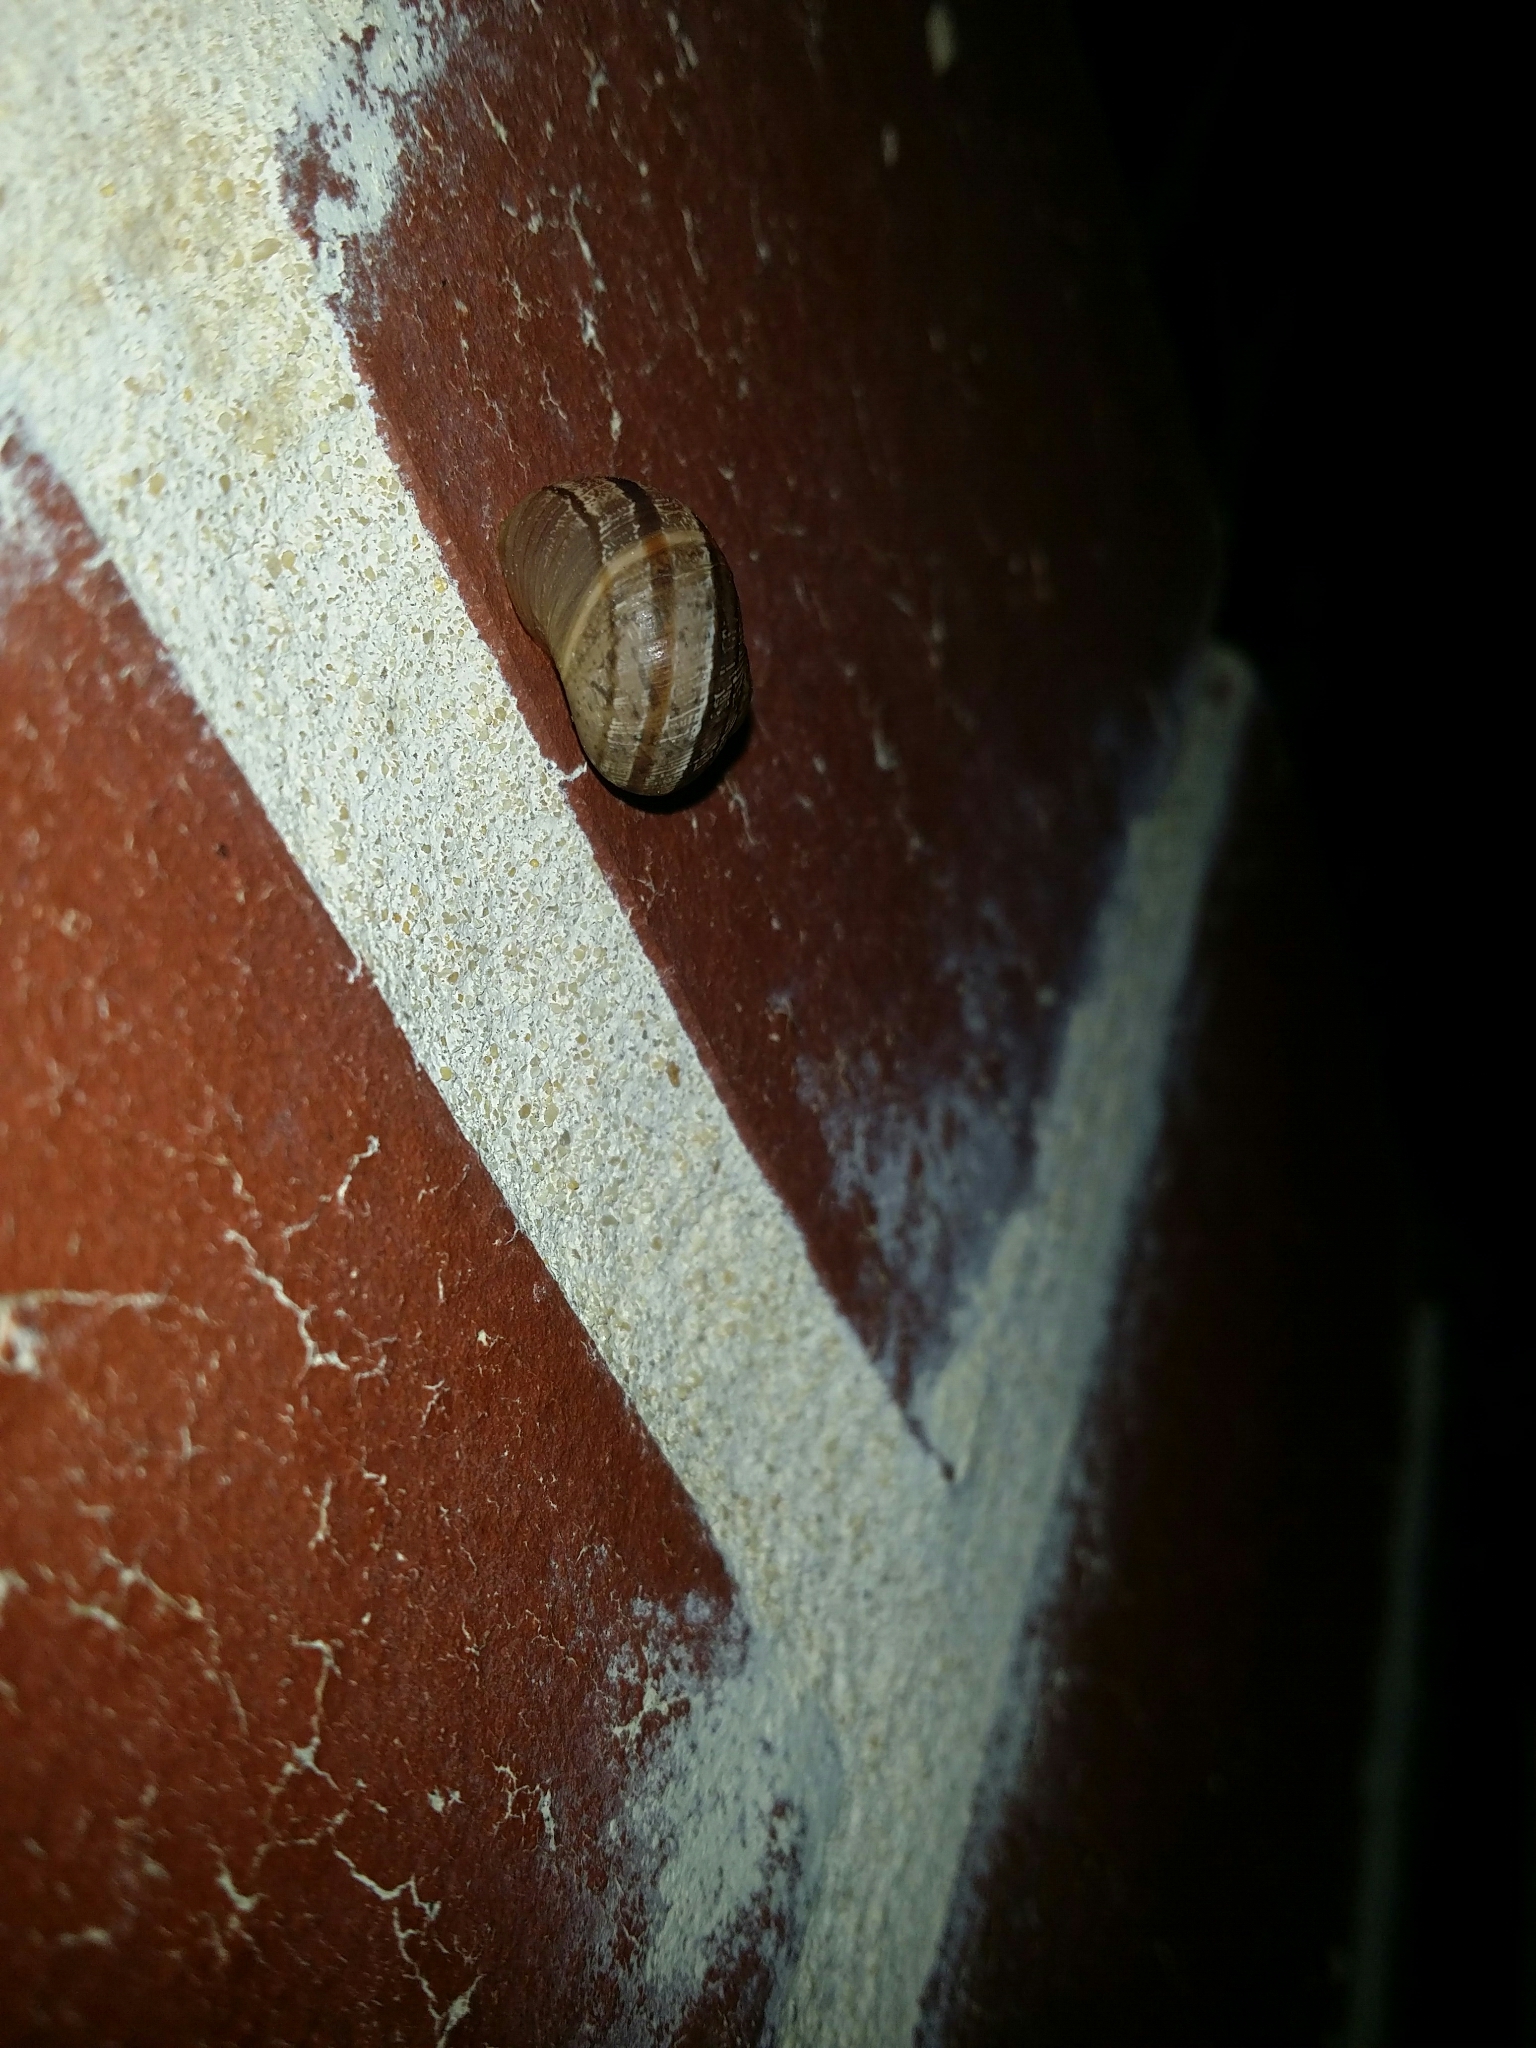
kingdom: Animalia
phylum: Mollusca
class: Gastropoda
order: Stylommatophora
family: Helicidae
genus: Cornu
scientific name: Cornu aspersum
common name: Brown garden snail
